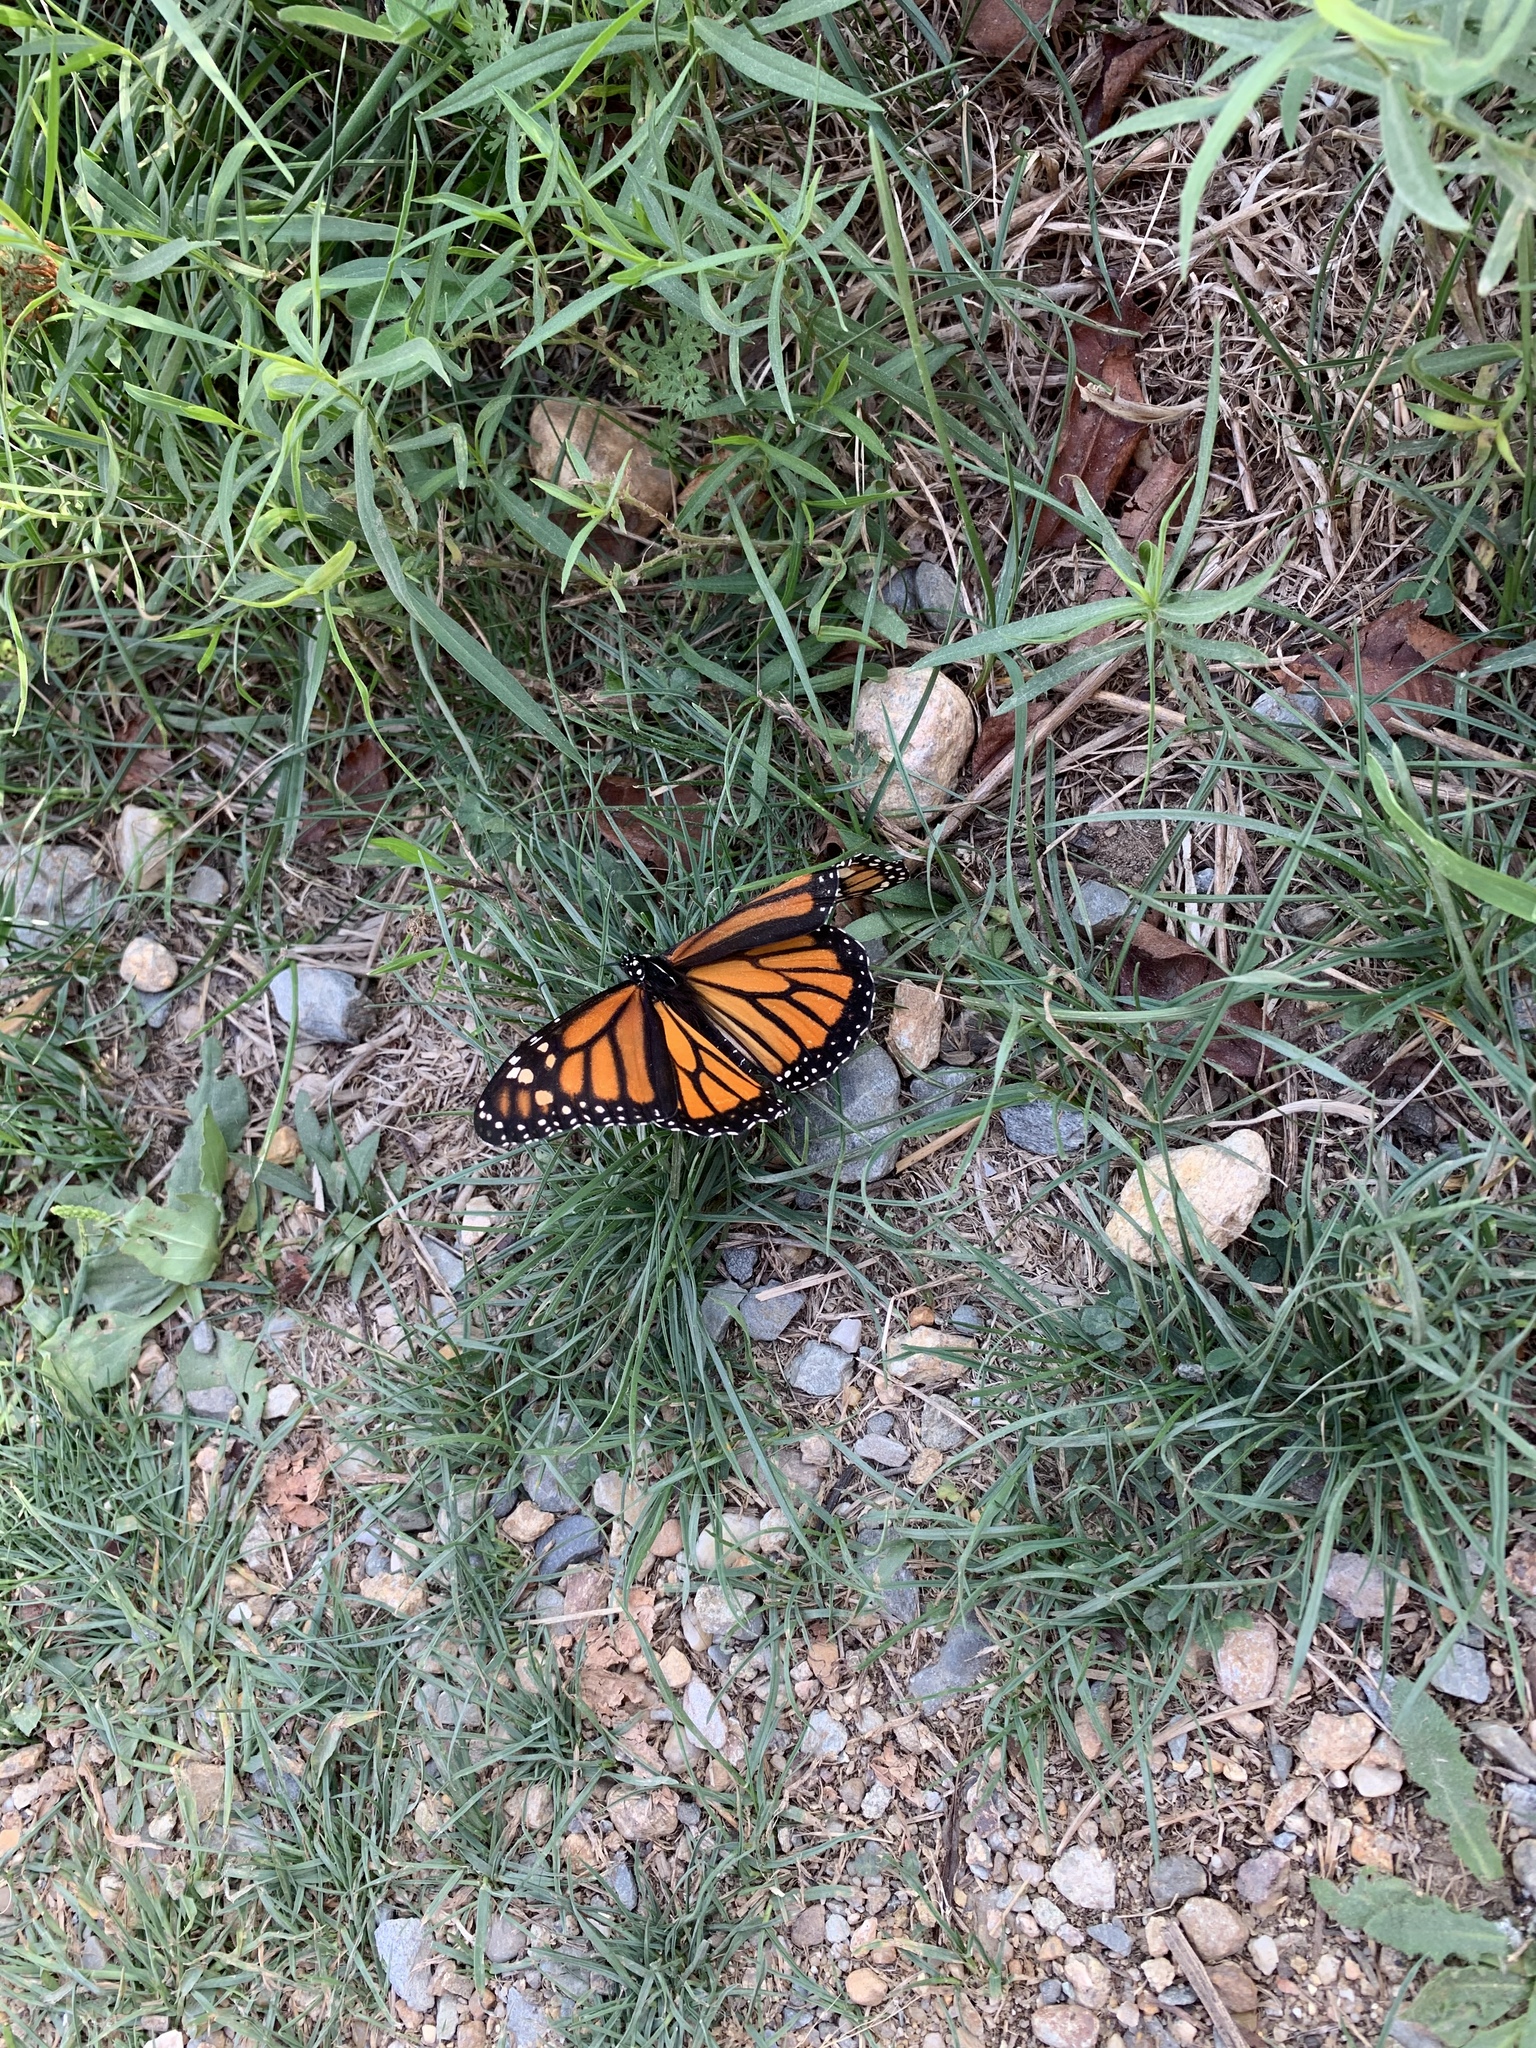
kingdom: Animalia
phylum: Arthropoda
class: Insecta
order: Lepidoptera
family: Nymphalidae
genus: Danaus
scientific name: Danaus plexippus
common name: Monarch
